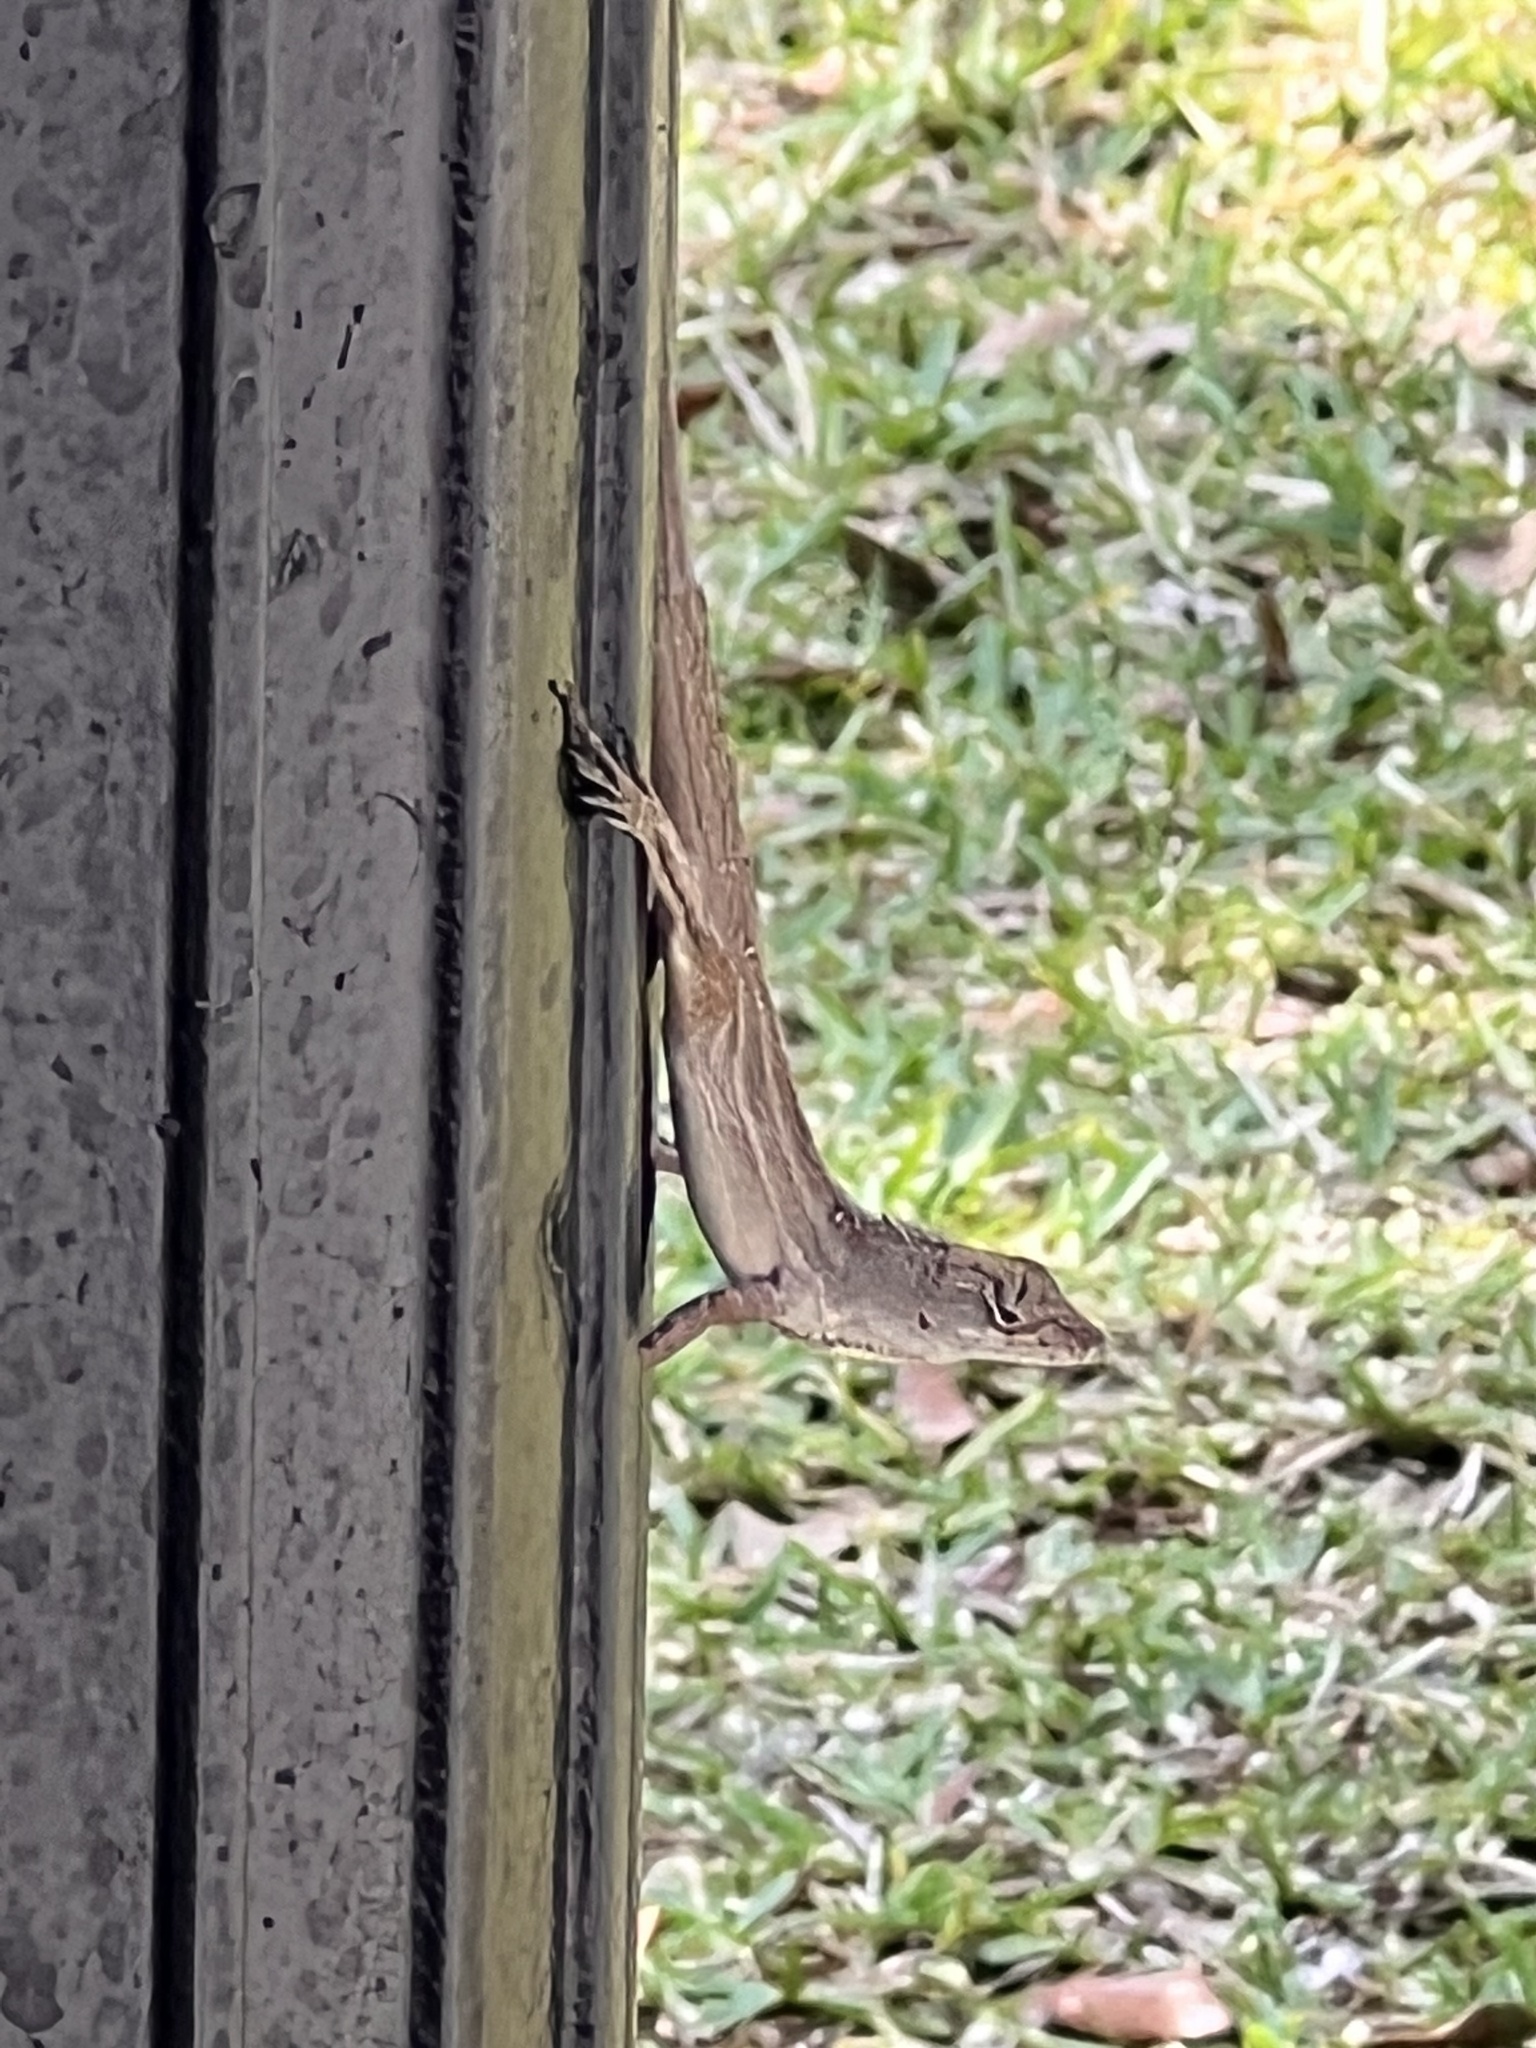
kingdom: Animalia
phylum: Chordata
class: Squamata
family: Dactyloidae
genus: Anolis
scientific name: Anolis sagrei
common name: Brown anole
